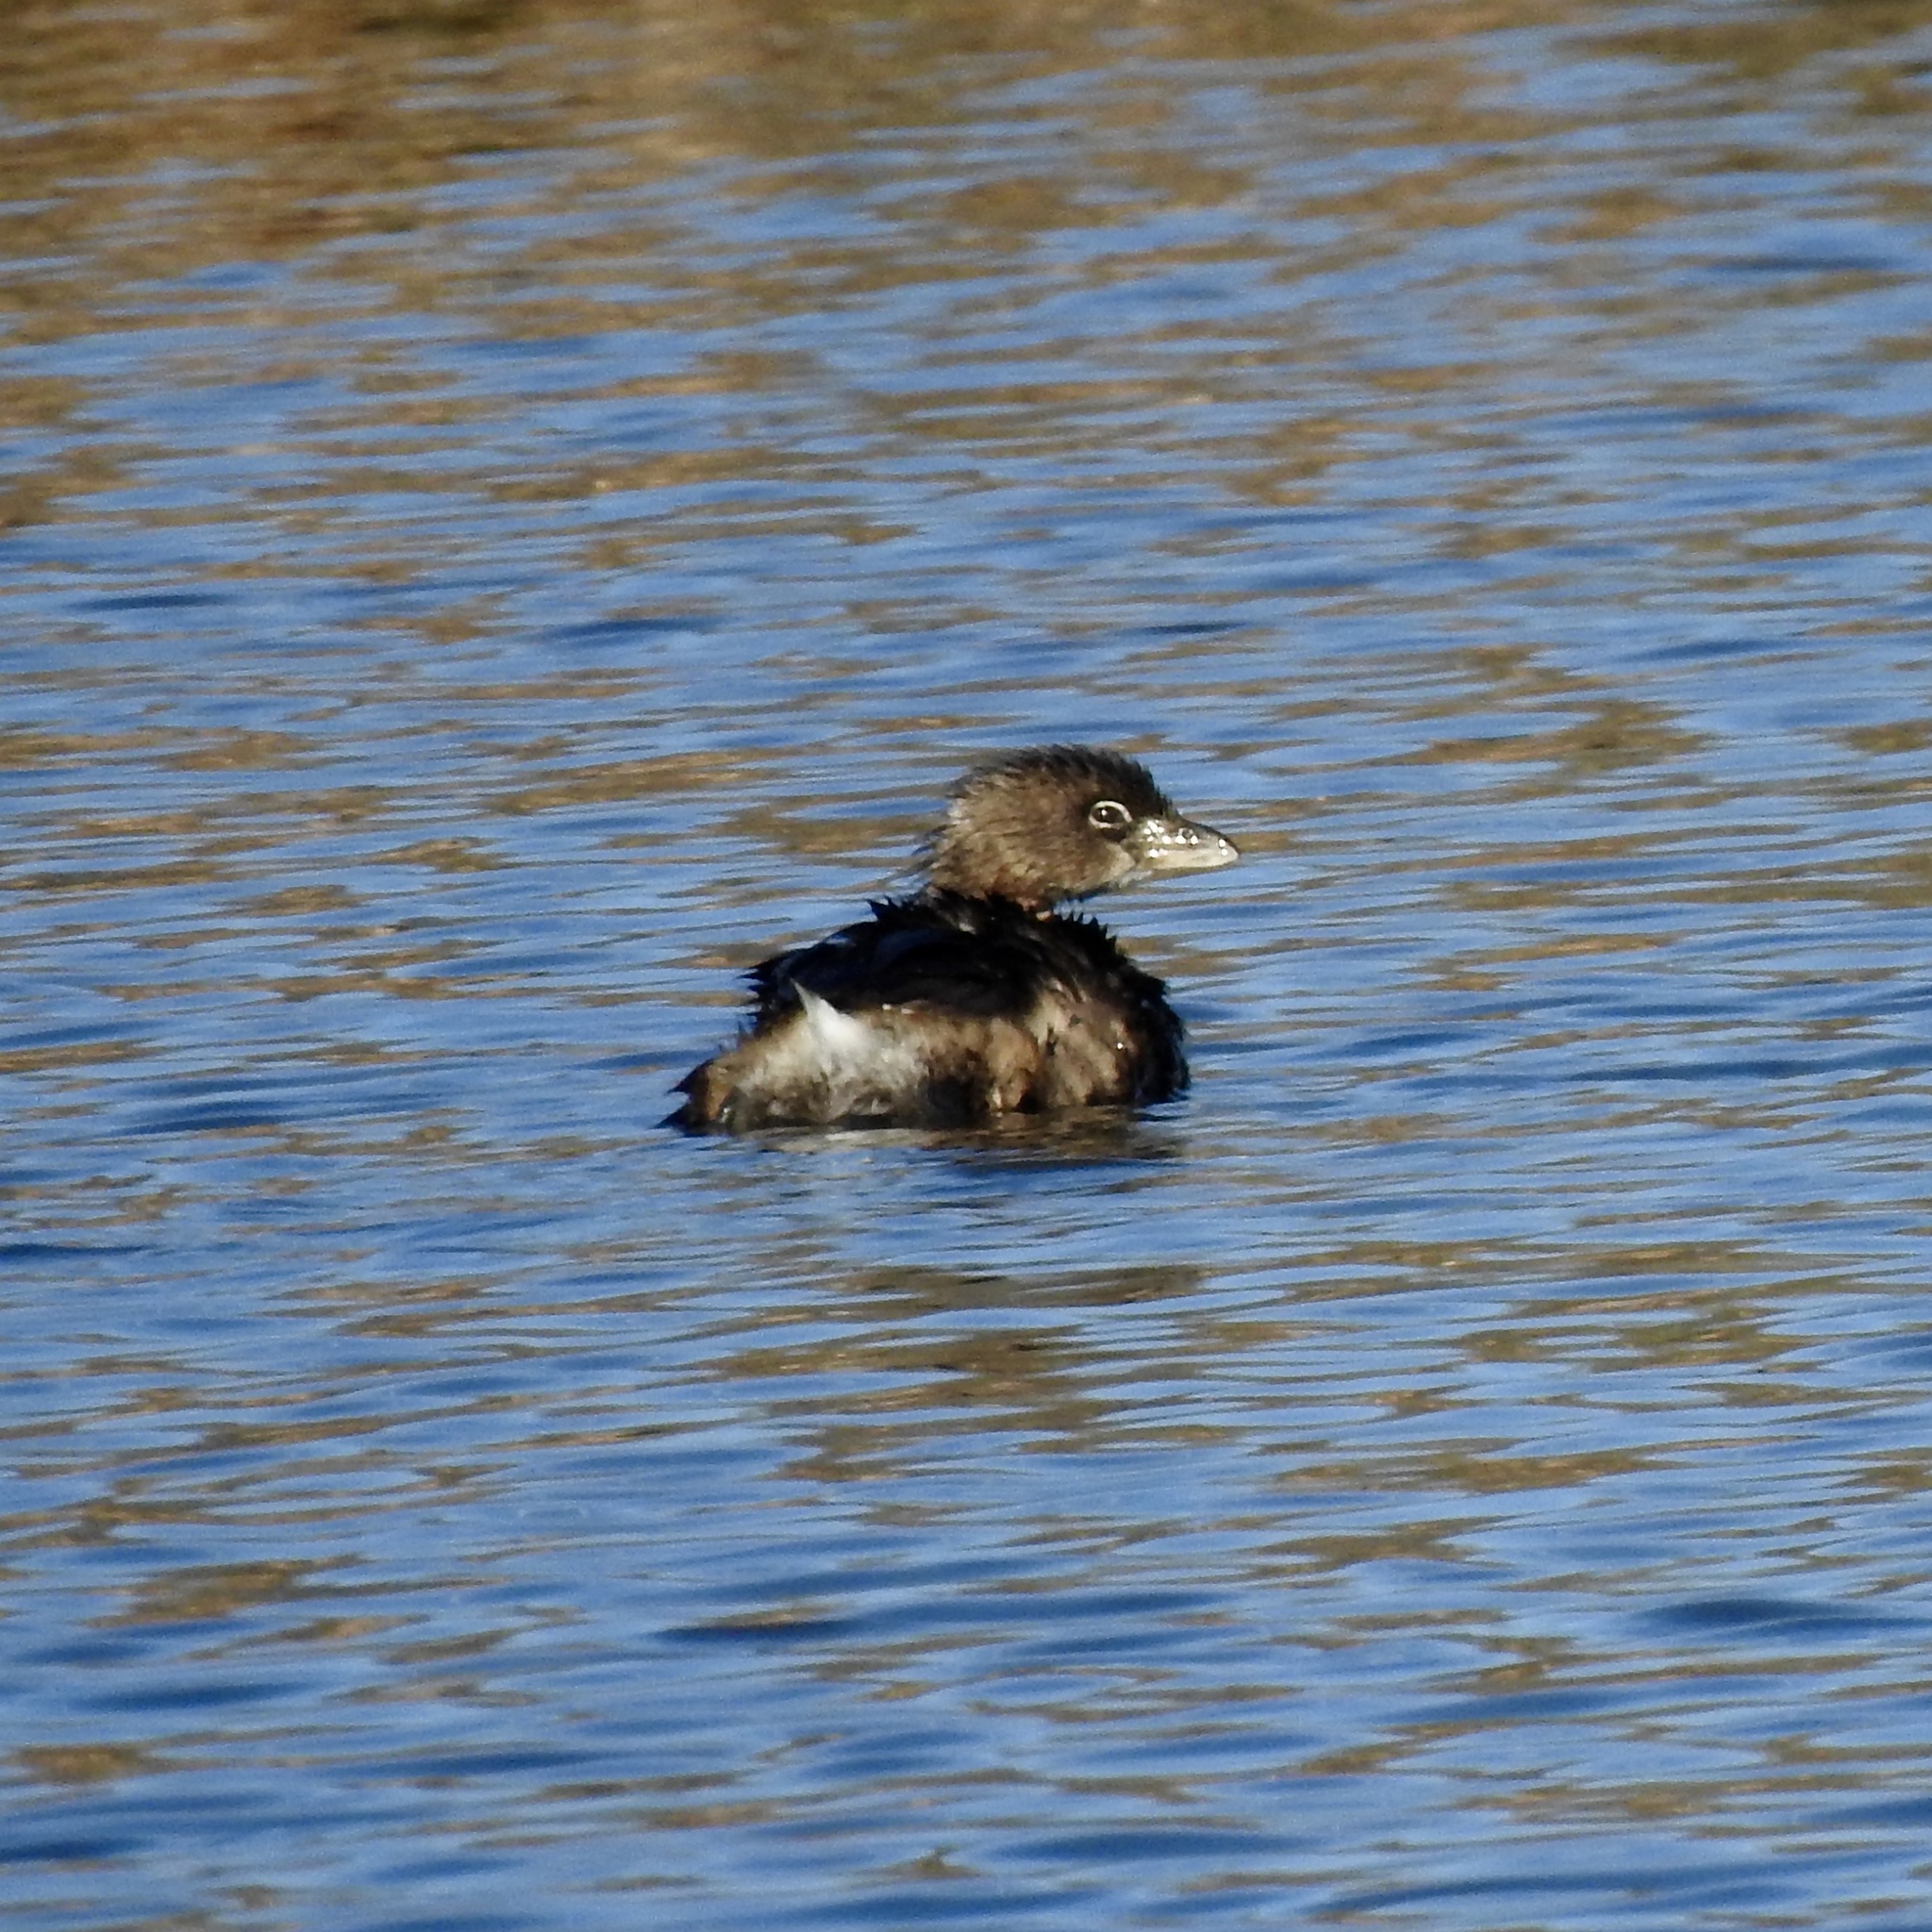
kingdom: Animalia
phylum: Chordata
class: Aves
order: Podicipediformes
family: Podicipedidae
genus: Podilymbus
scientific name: Podilymbus podiceps
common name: Pied-billed grebe
